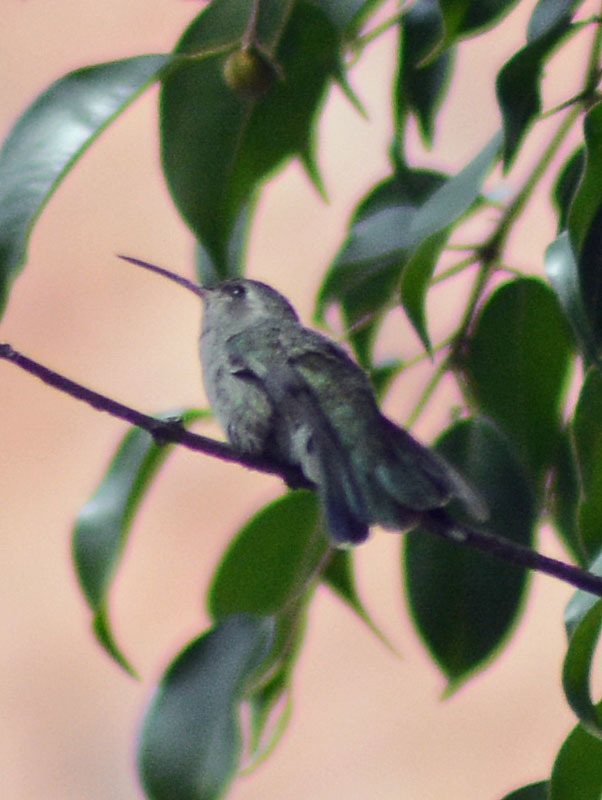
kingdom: Animalia
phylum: Chordata
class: Aves
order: Apodiformes
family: Trochilidae
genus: Cynanthus
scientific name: Cynanthus latirostris
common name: Broad-billed hummingbird
